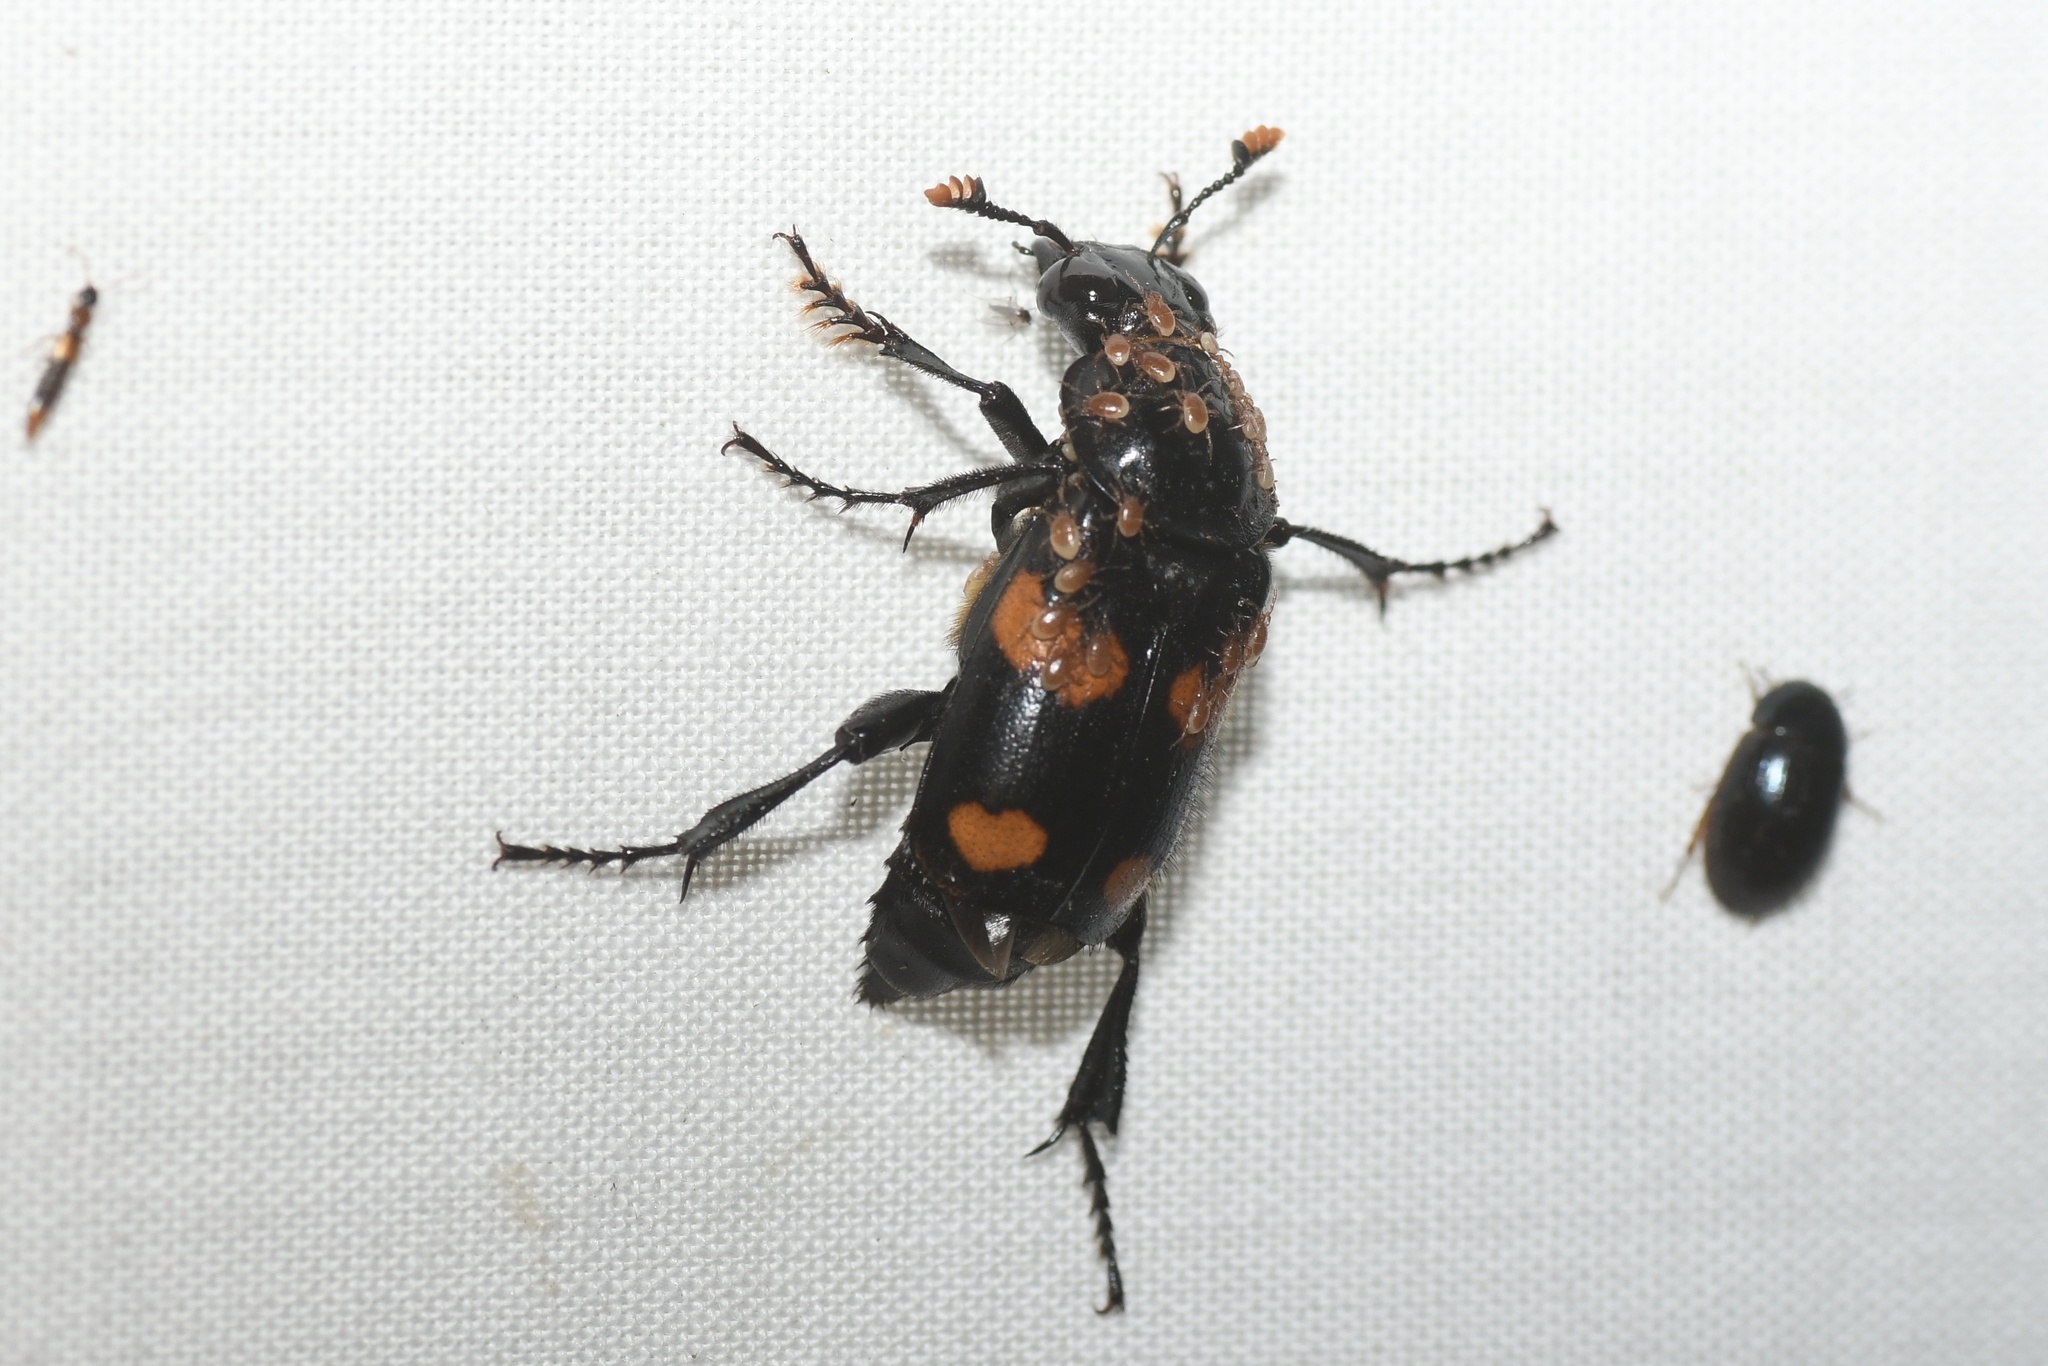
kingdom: Animalia
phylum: Arthropoda
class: Insecta
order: Coleoptera
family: Staphylinidae
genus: Nicrophorus
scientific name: Nicrophorus orbicollis
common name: Roundneck sexton beetle
